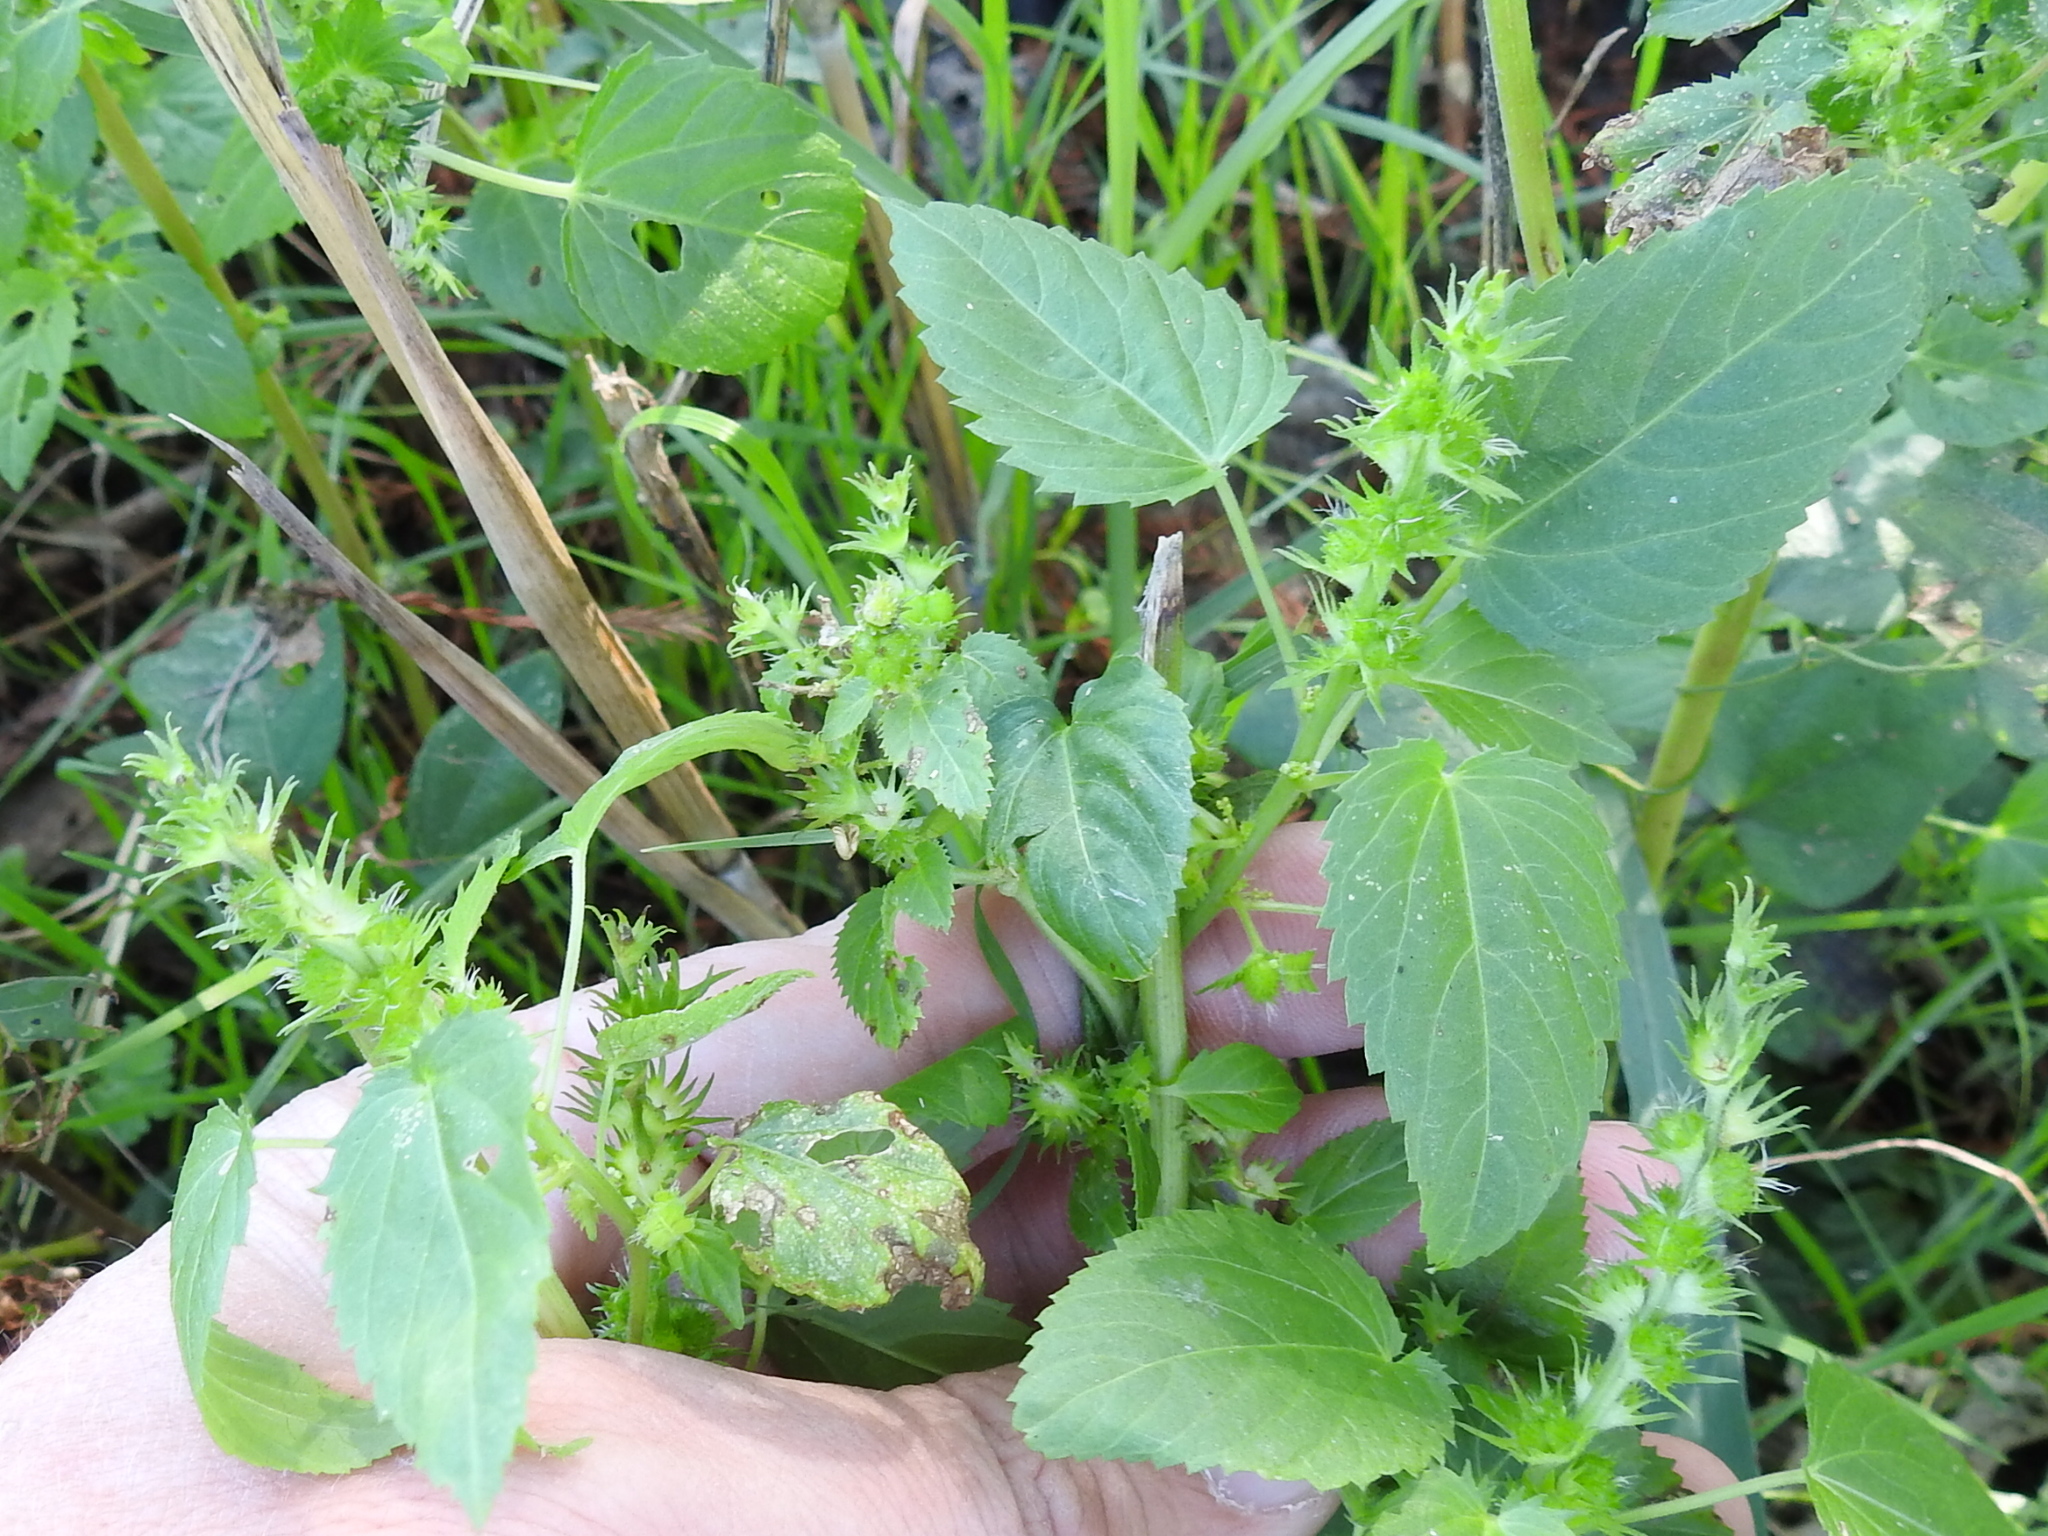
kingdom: Plantae
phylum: Tracheophyta
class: Magnoliopsida
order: Malpighiales
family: Euphorbiaceae
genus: Acalypha
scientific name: Acalypha ostryifolia
